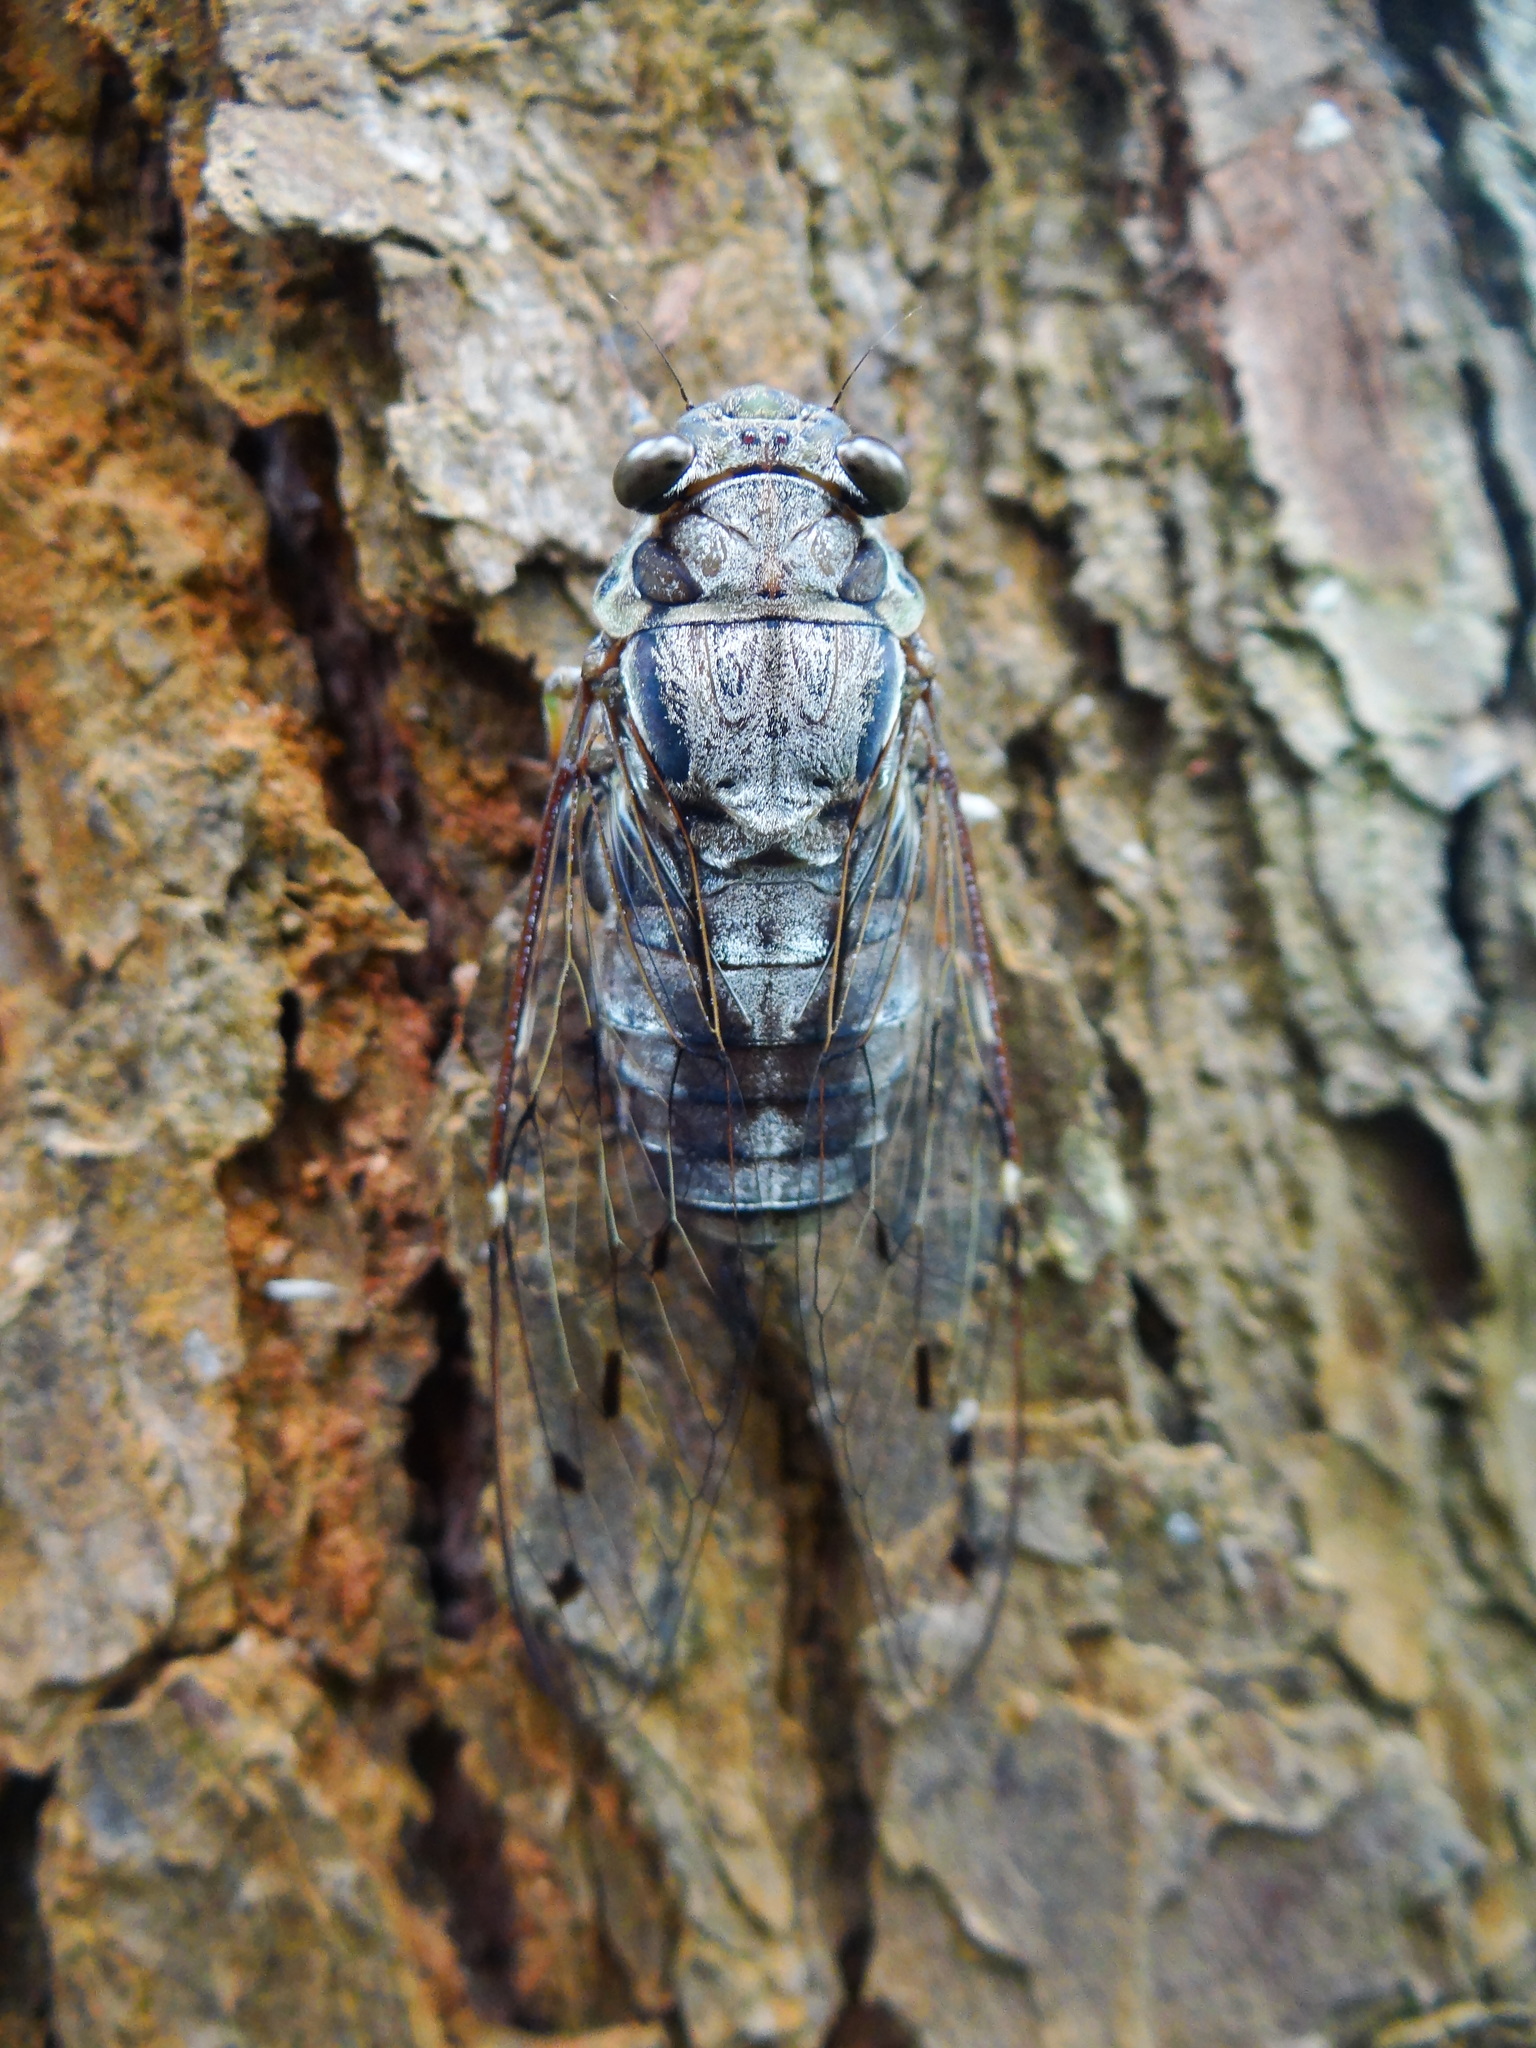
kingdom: Animalia
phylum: Arthropoda
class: Insecta
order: Hemiptera
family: Cicadidae
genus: Purana
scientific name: Purana gigas
